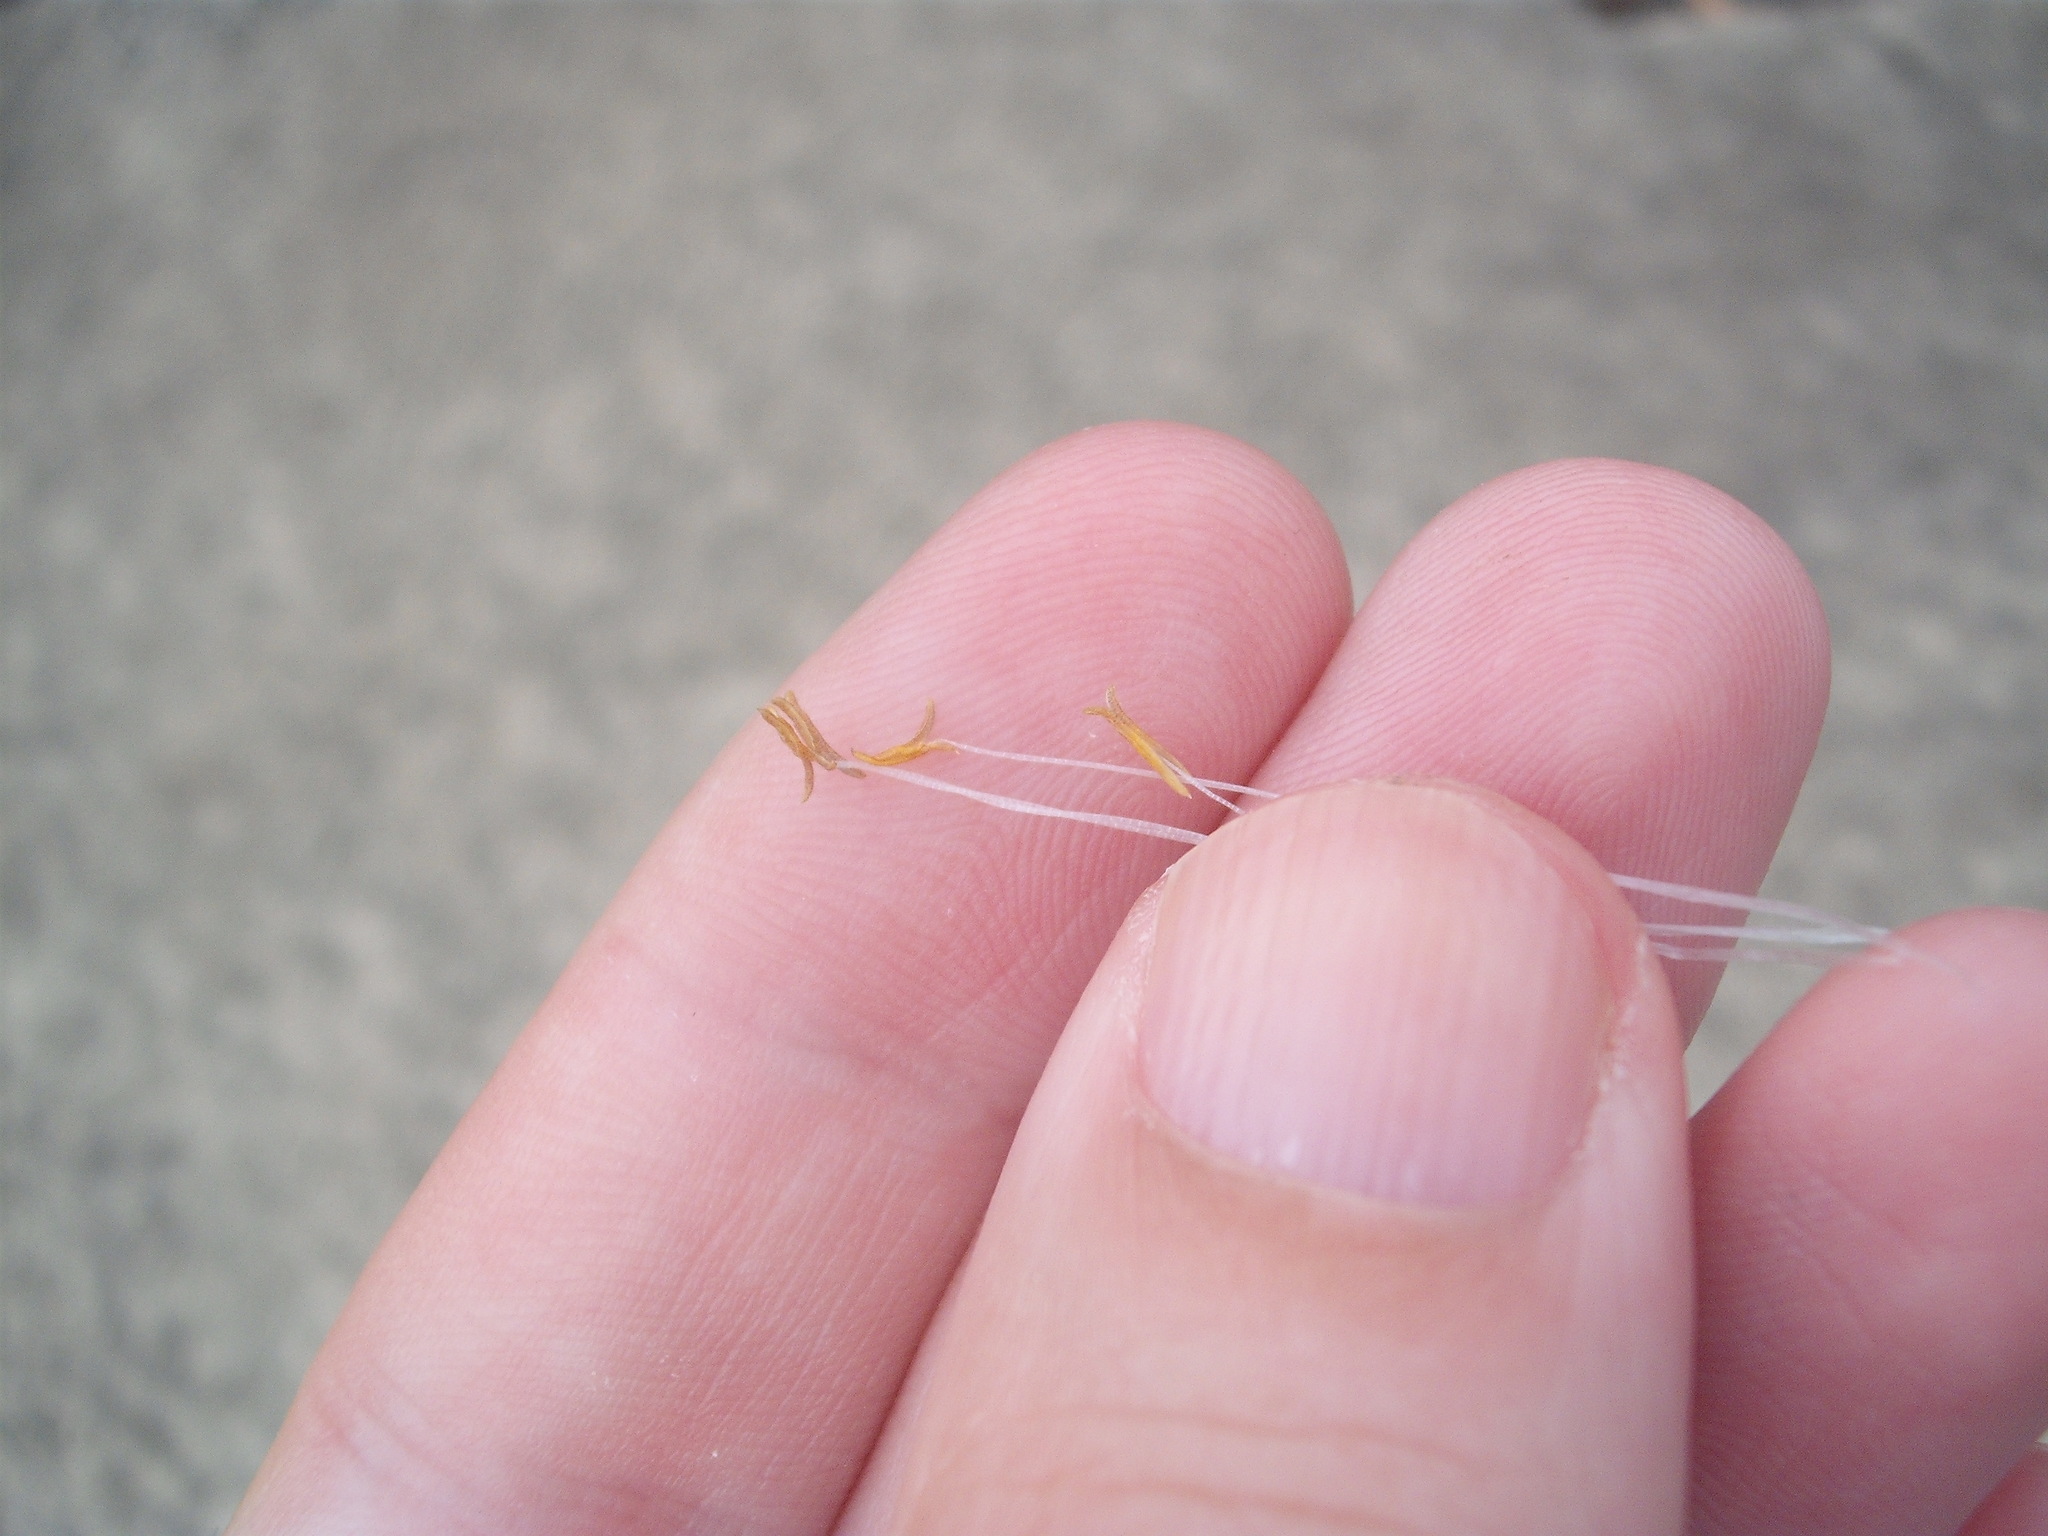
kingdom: Plantae
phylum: Tracheophyta
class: Liliopsida
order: Poales
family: Poaceae
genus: Cenchrus
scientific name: Cenchrus clandestinus
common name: Kikuyugrass
